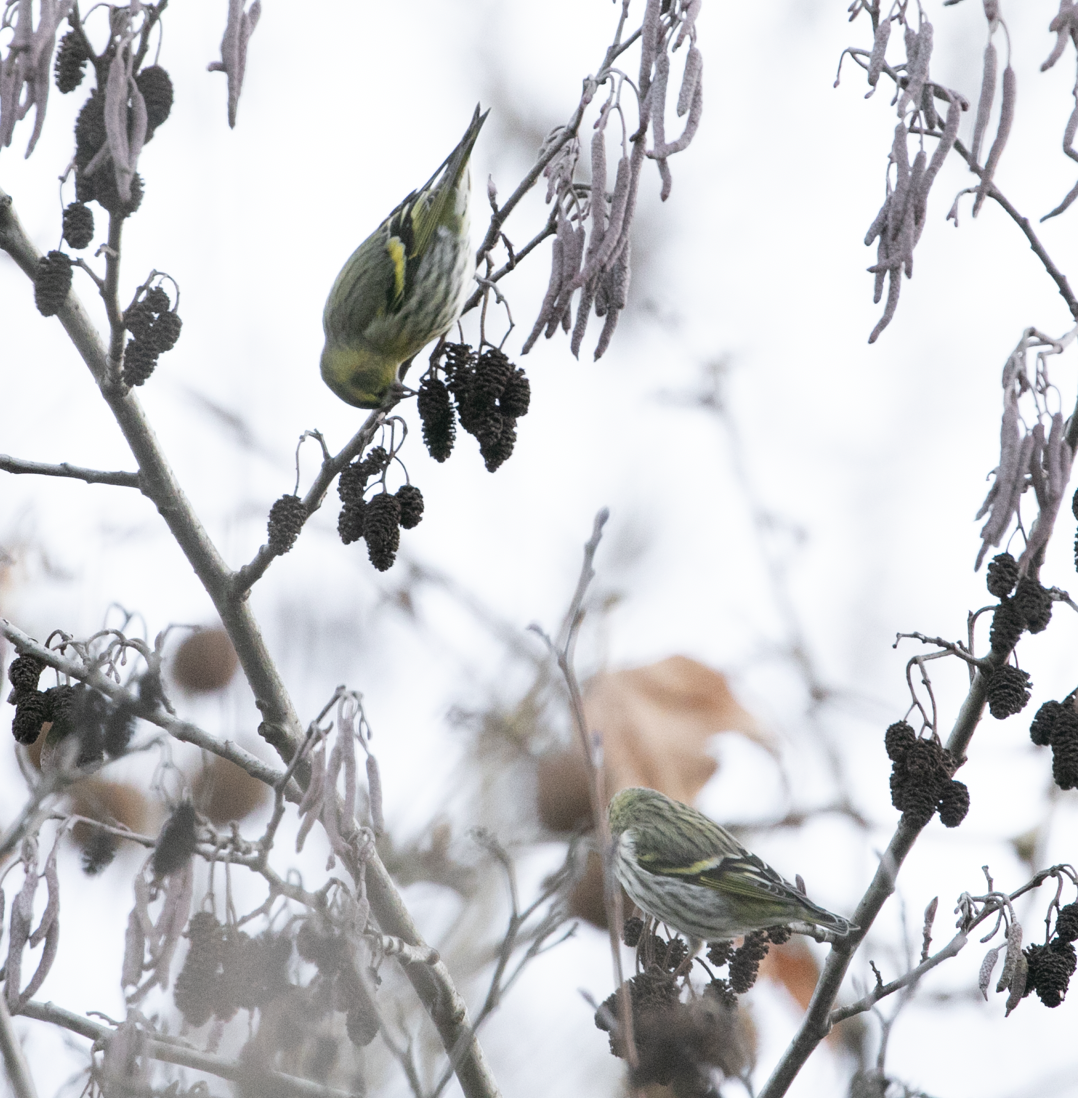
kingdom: Animalia
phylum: Chordata
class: Aves
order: Passeriformes
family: Fringillidae
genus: Spinus
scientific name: Spinus spinus
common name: Eurasian siskin
